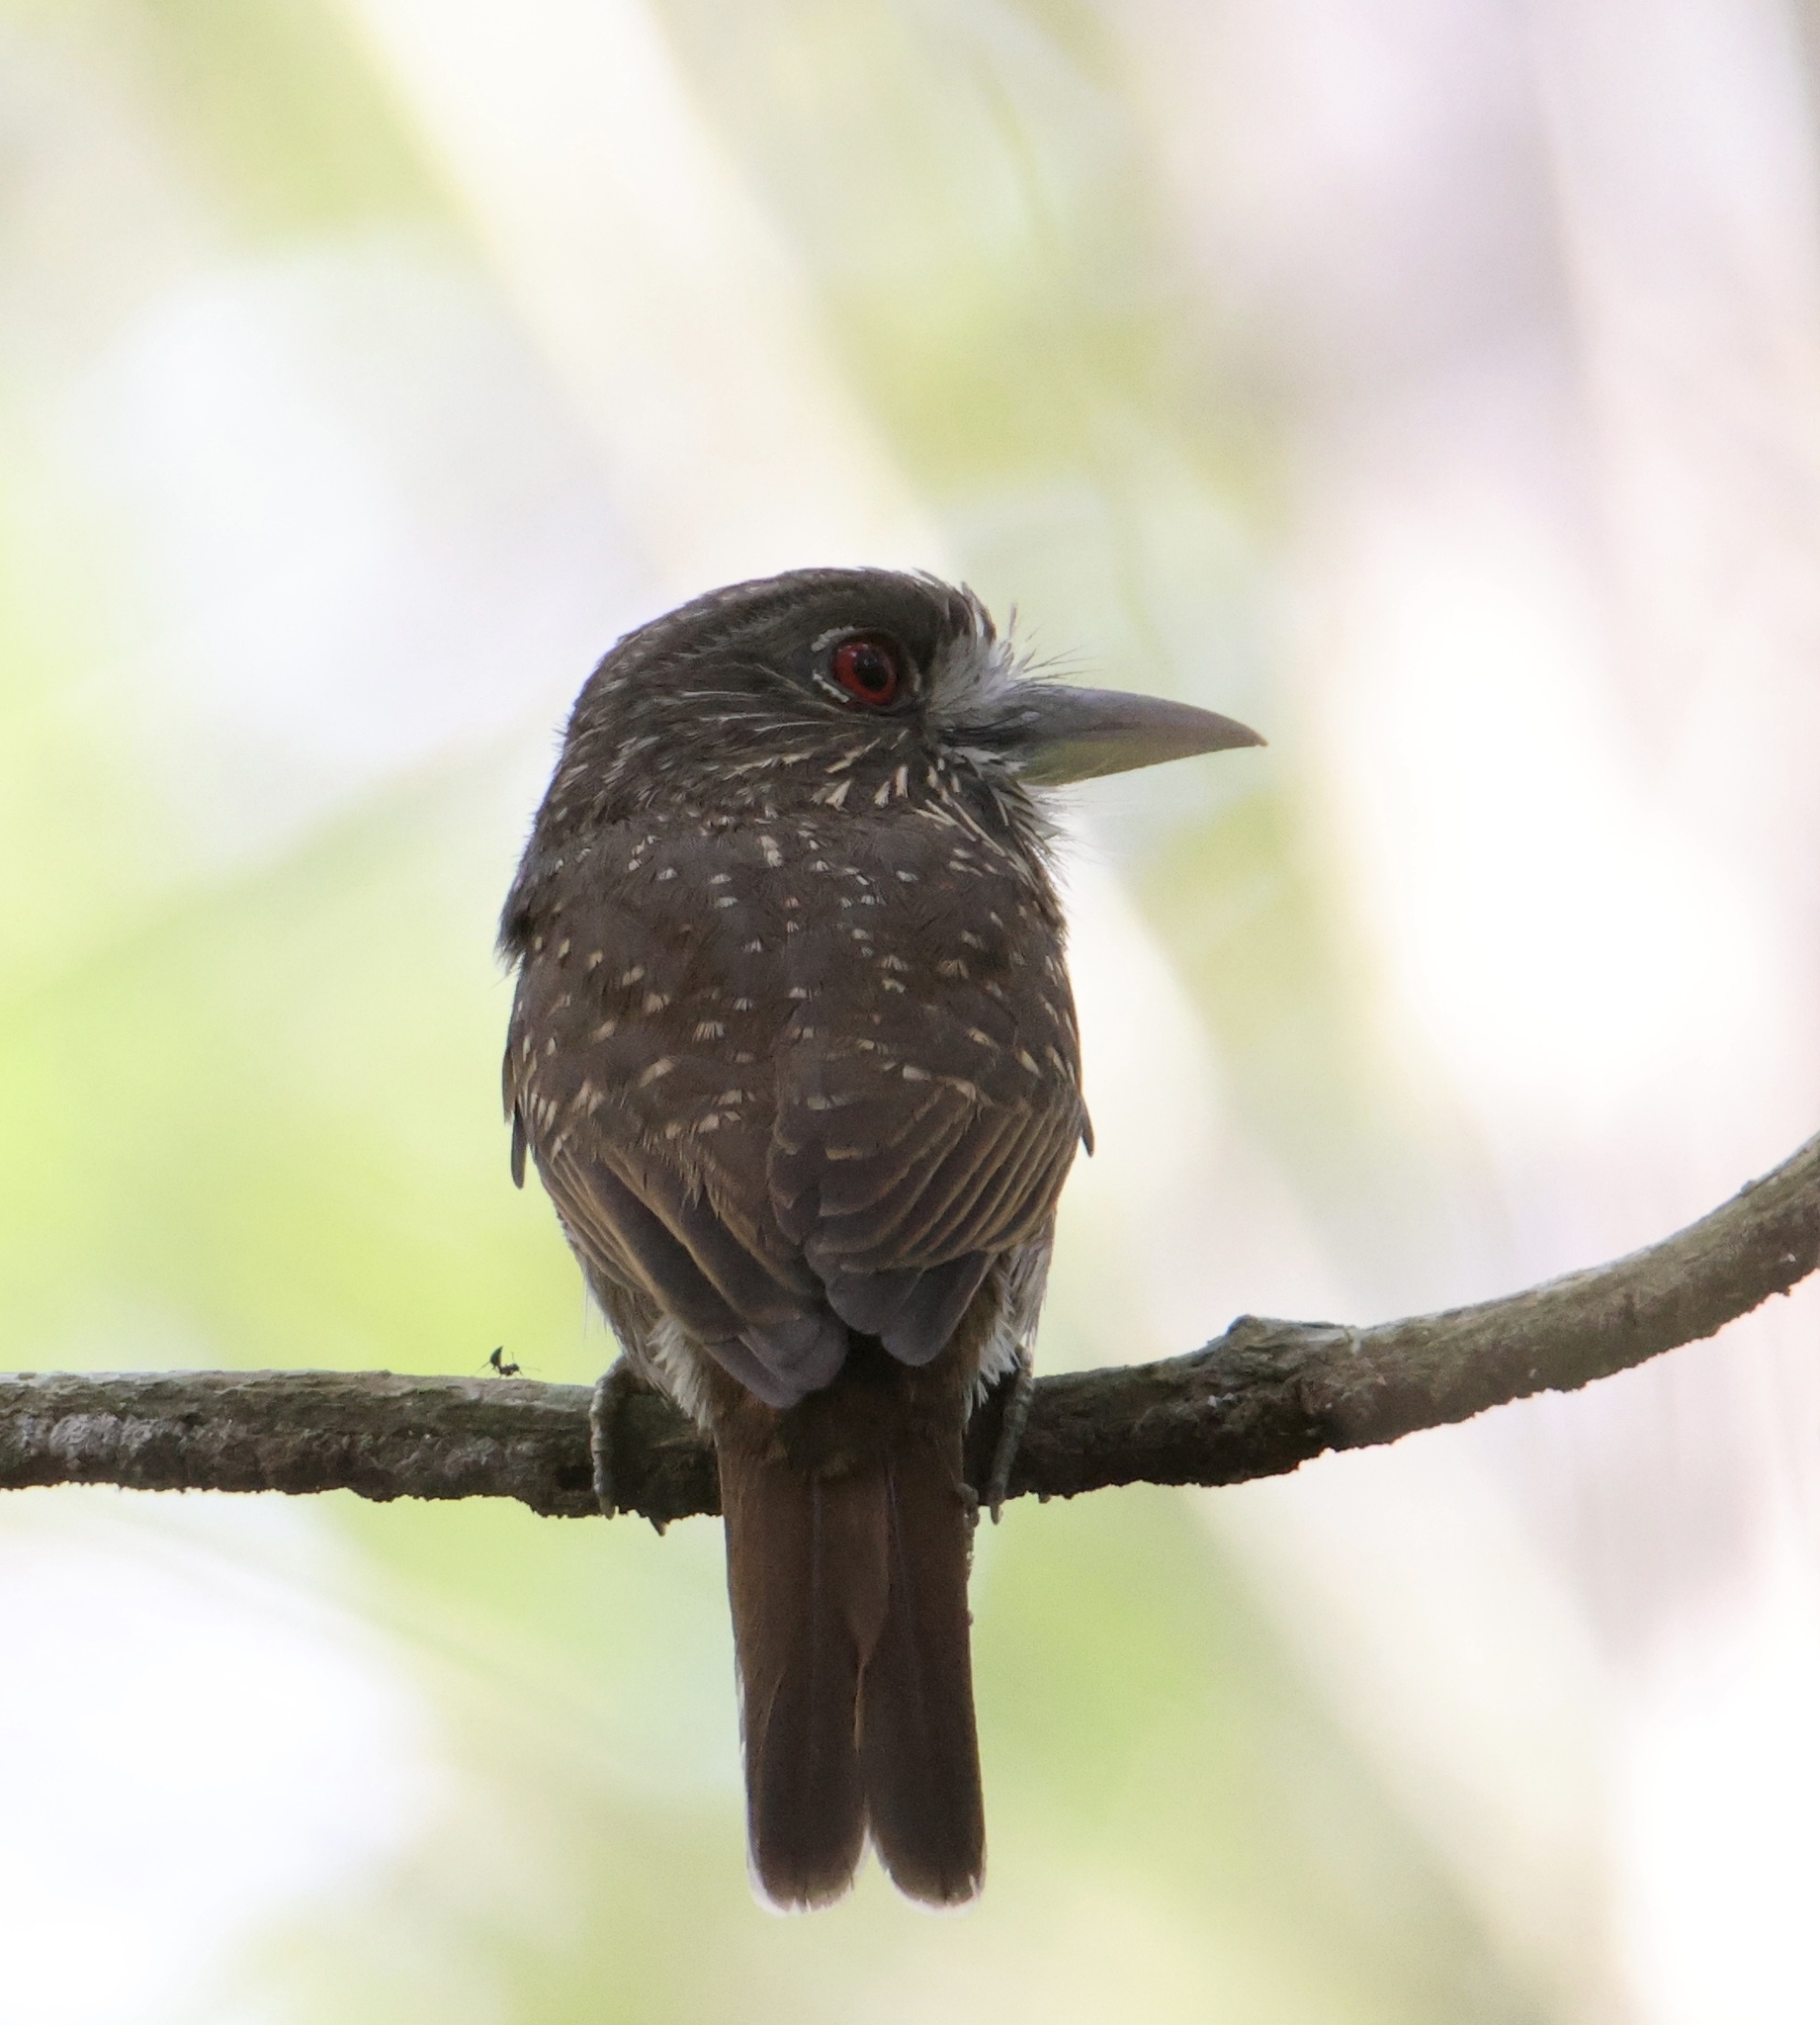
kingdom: Animalia
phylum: Chordata
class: Aves
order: Piciformes
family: Bucconidae
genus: Malacoptila
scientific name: Malacoptila panamensis
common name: White-whiskered puffbird
